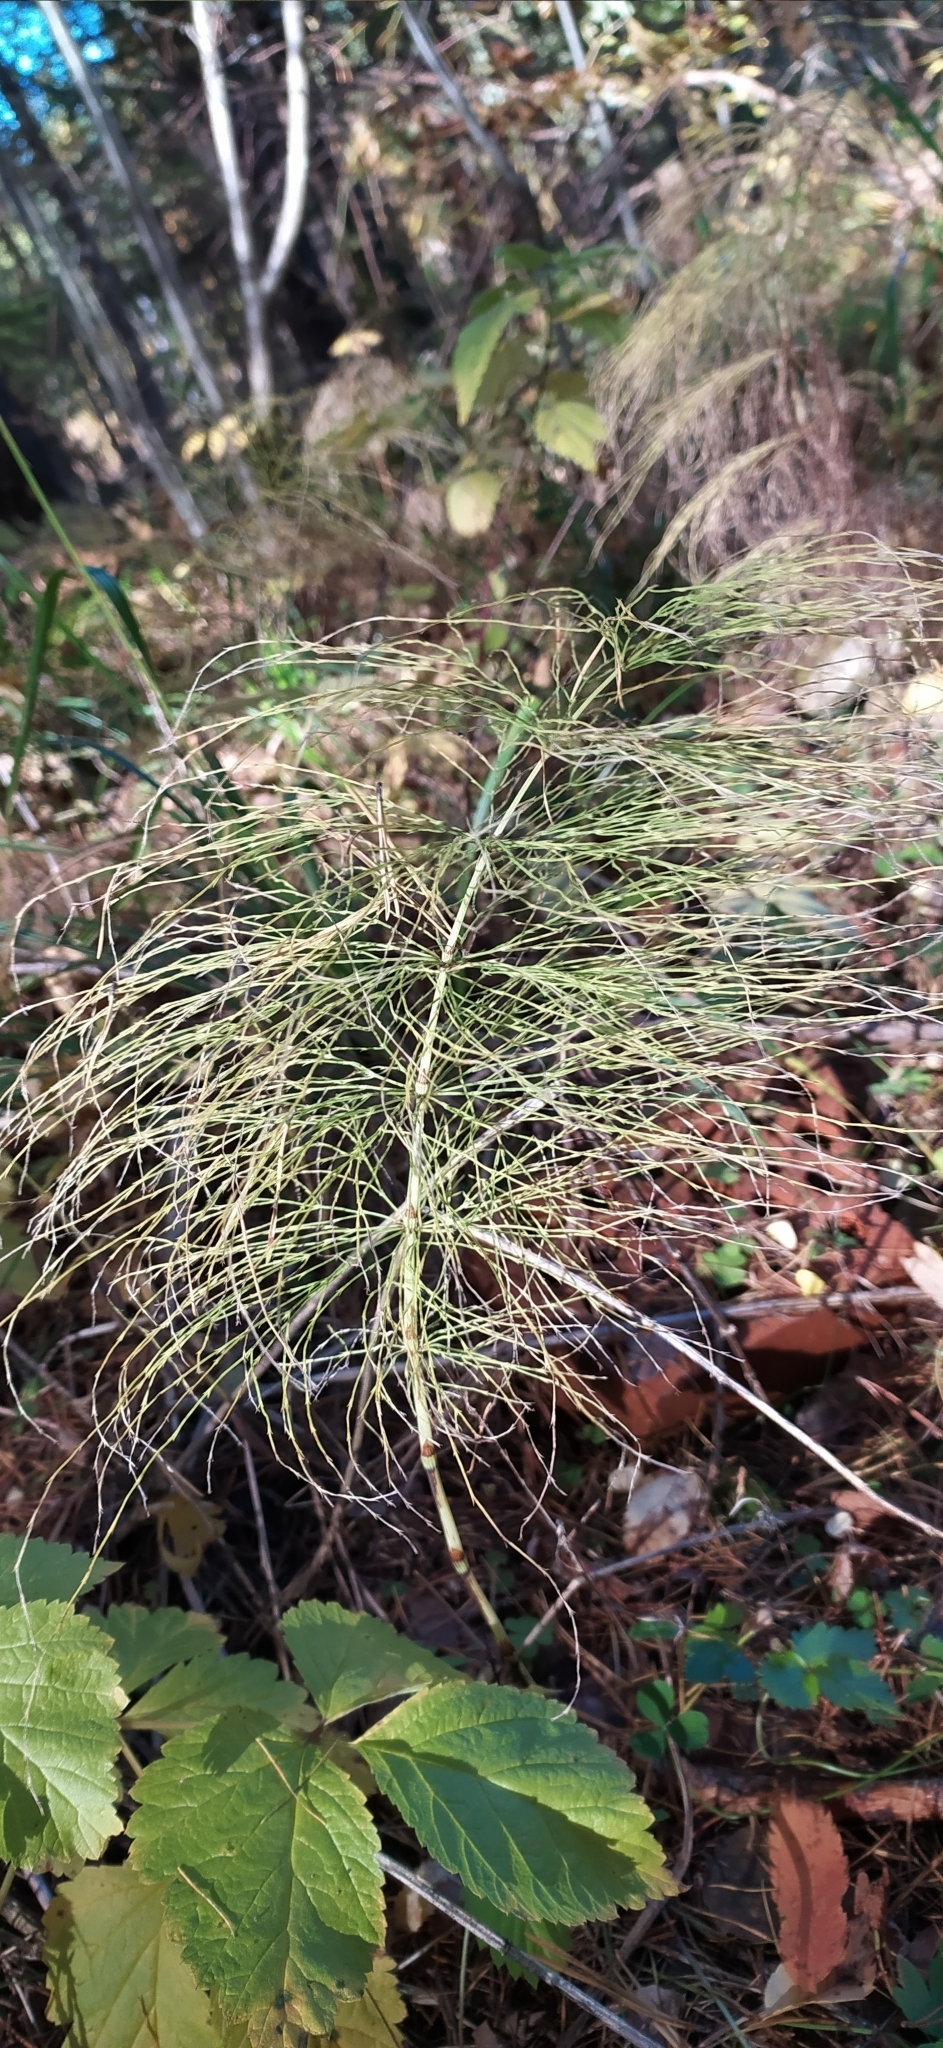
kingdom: Plantae
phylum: Tracheophyta
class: Polypodiopsida
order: Equisetales
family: Equisetaceae
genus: Equisetum
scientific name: Equisetum sylvaticum
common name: Wood horsetail
